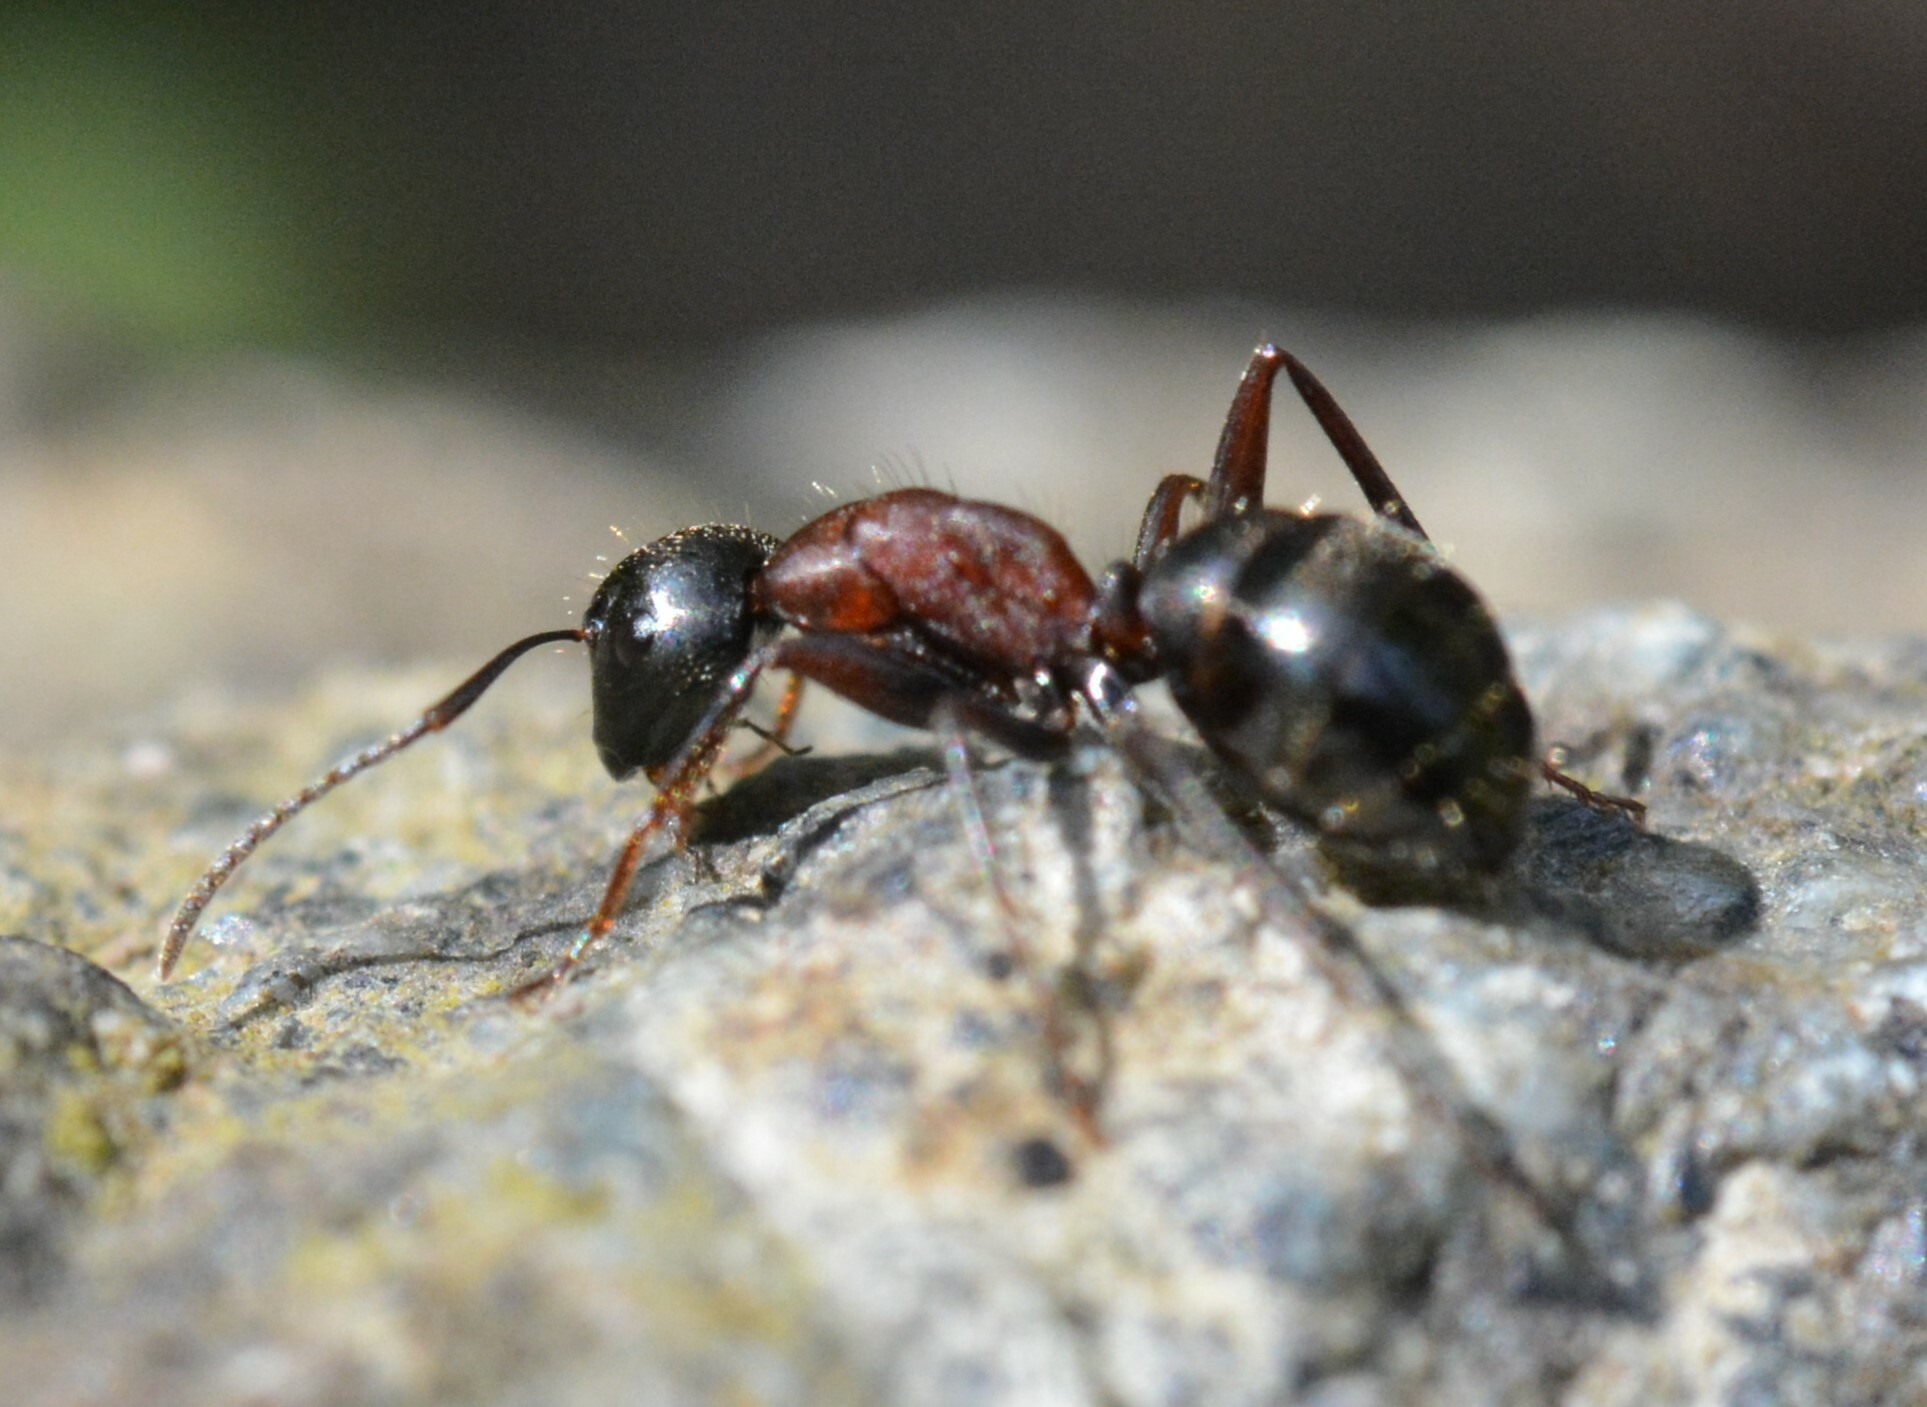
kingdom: Animalia
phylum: Arthropoda
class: Insecta
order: Hymenoptera
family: Formicidae
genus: Camponotus
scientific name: Camponotus novaeboracensis
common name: New york carpenter ant
